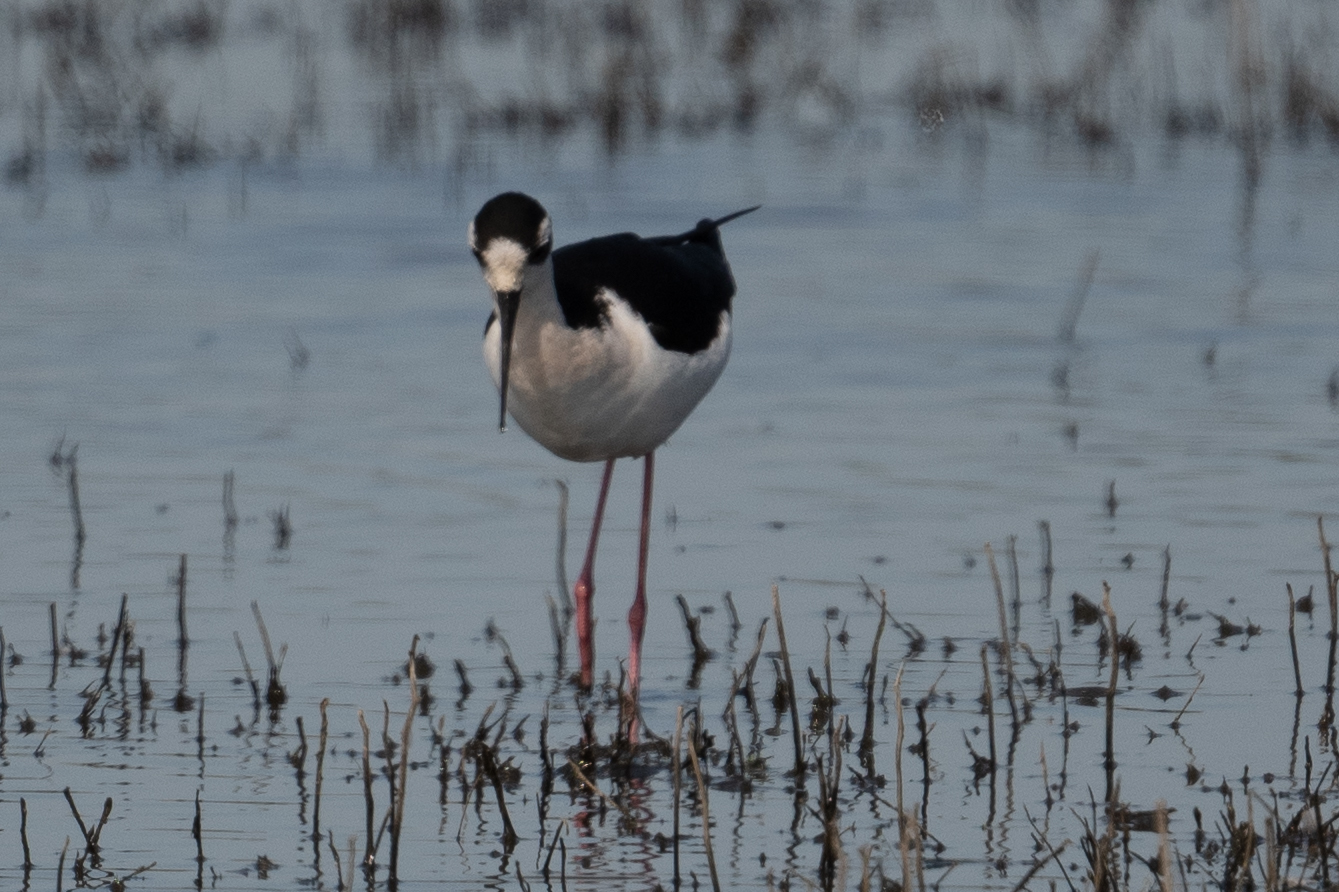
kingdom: Animalia
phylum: Chordata
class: Aves
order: Charadriiformes
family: Recurvirostridae
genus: Himantopus
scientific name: Himantopus mexicanus
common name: Black-necked stilt
